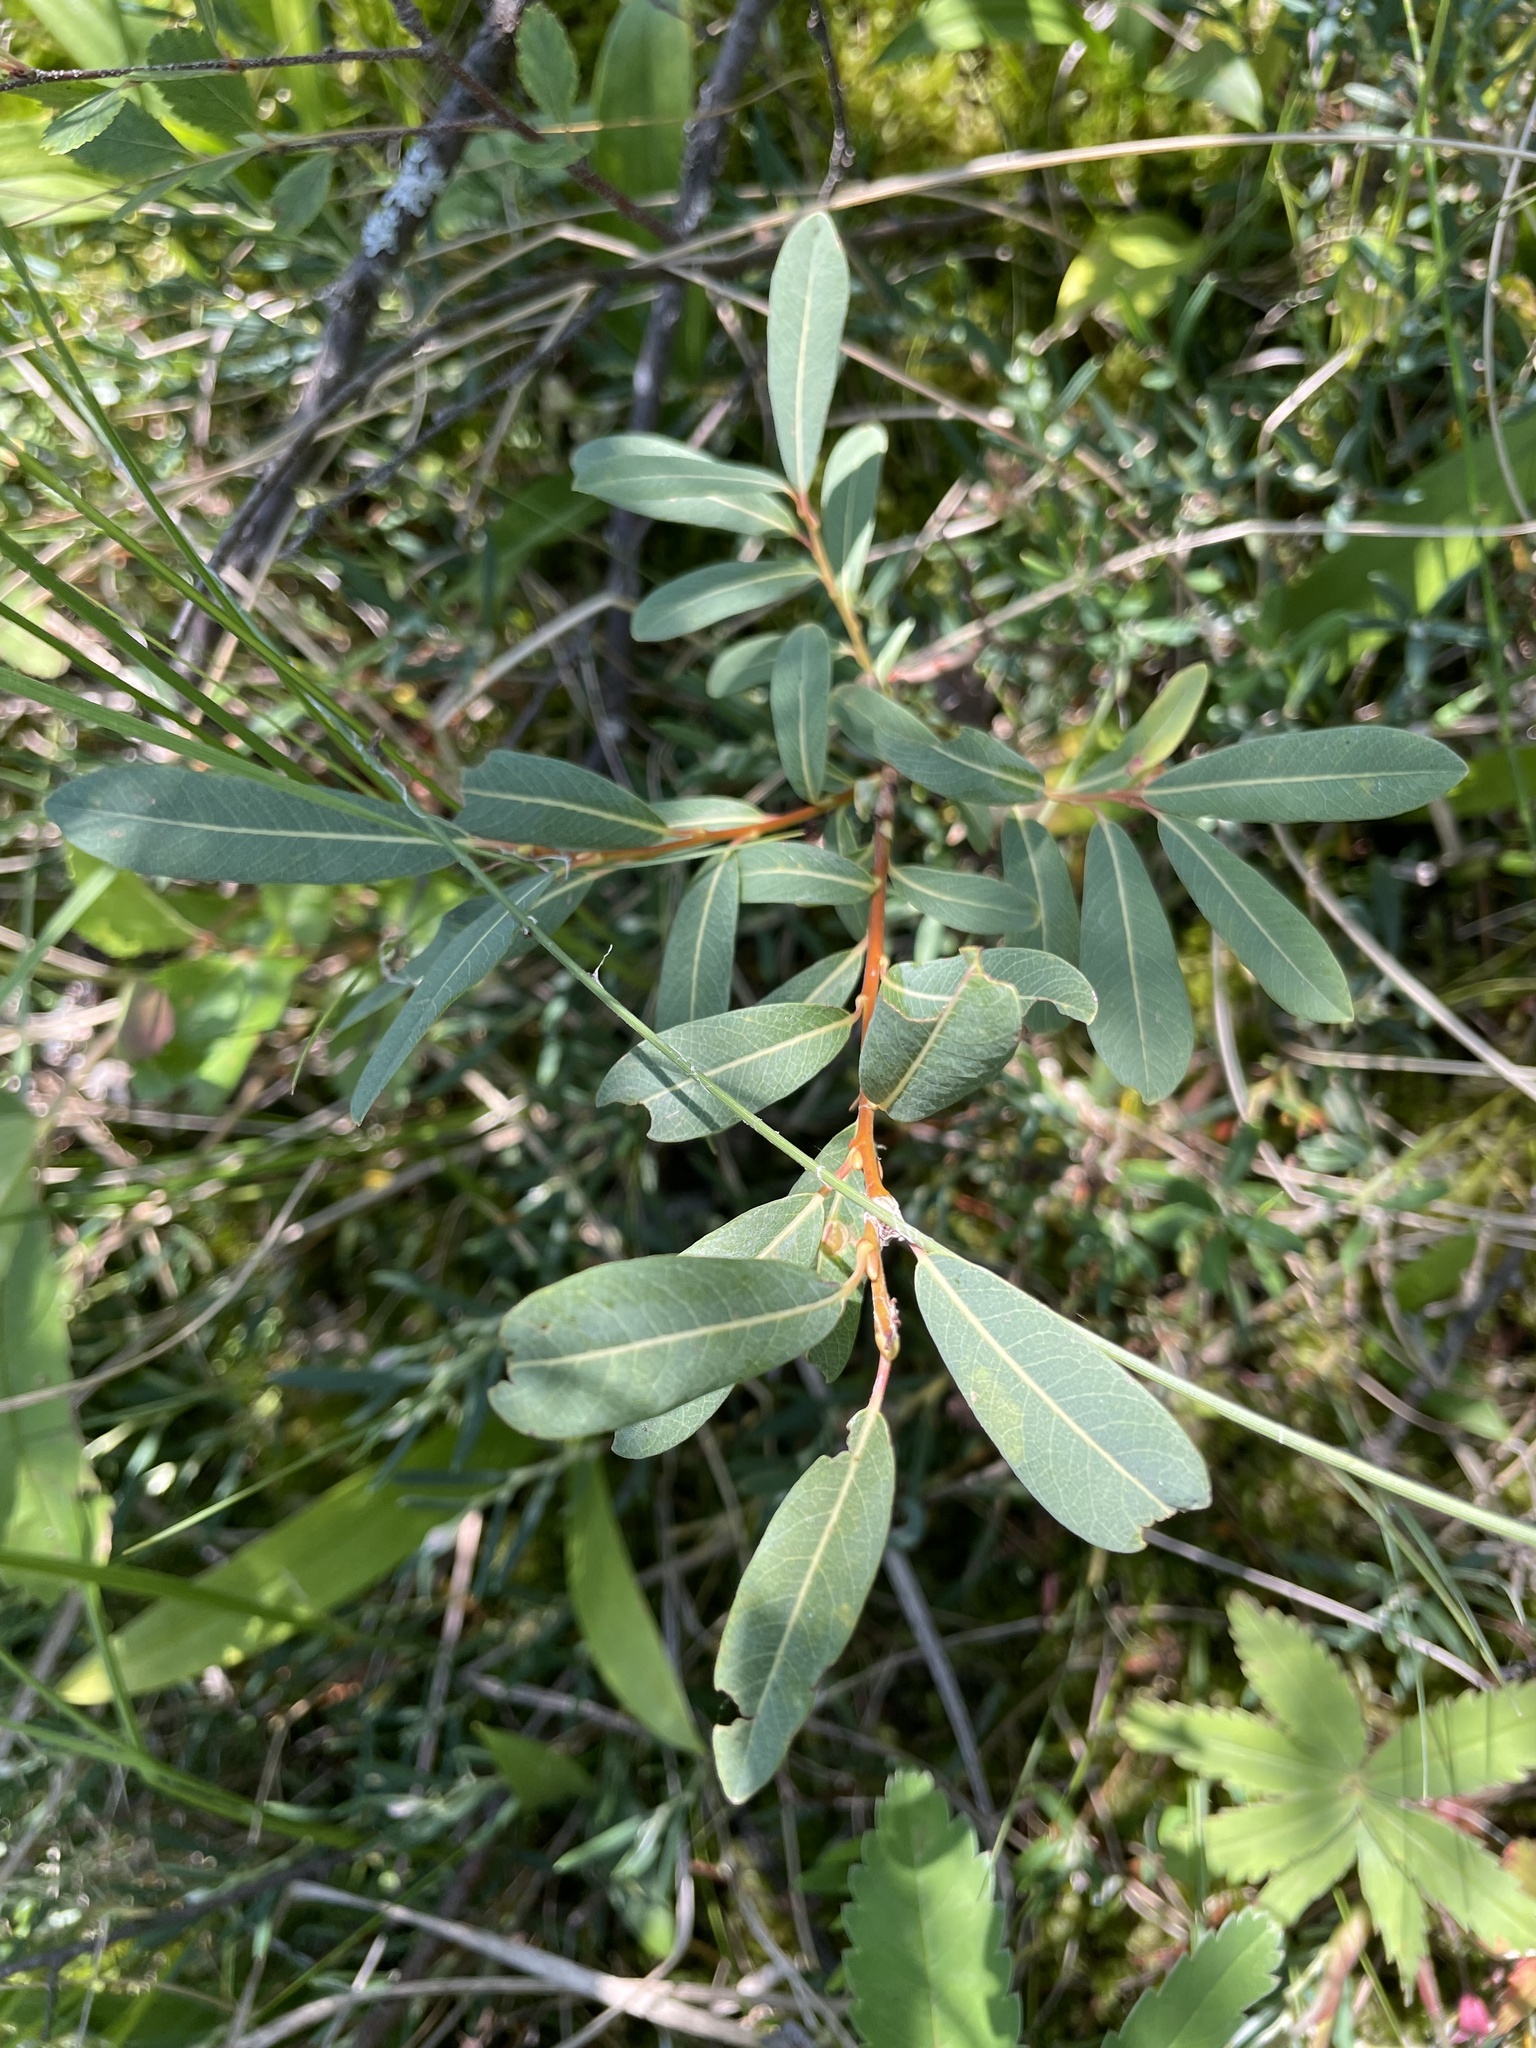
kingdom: Plantae
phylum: Tracheophyta
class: Magnoliopsida
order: Malpighiales
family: Salicaceae
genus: Salix
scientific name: Salix pedicellaris
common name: Bog willow
